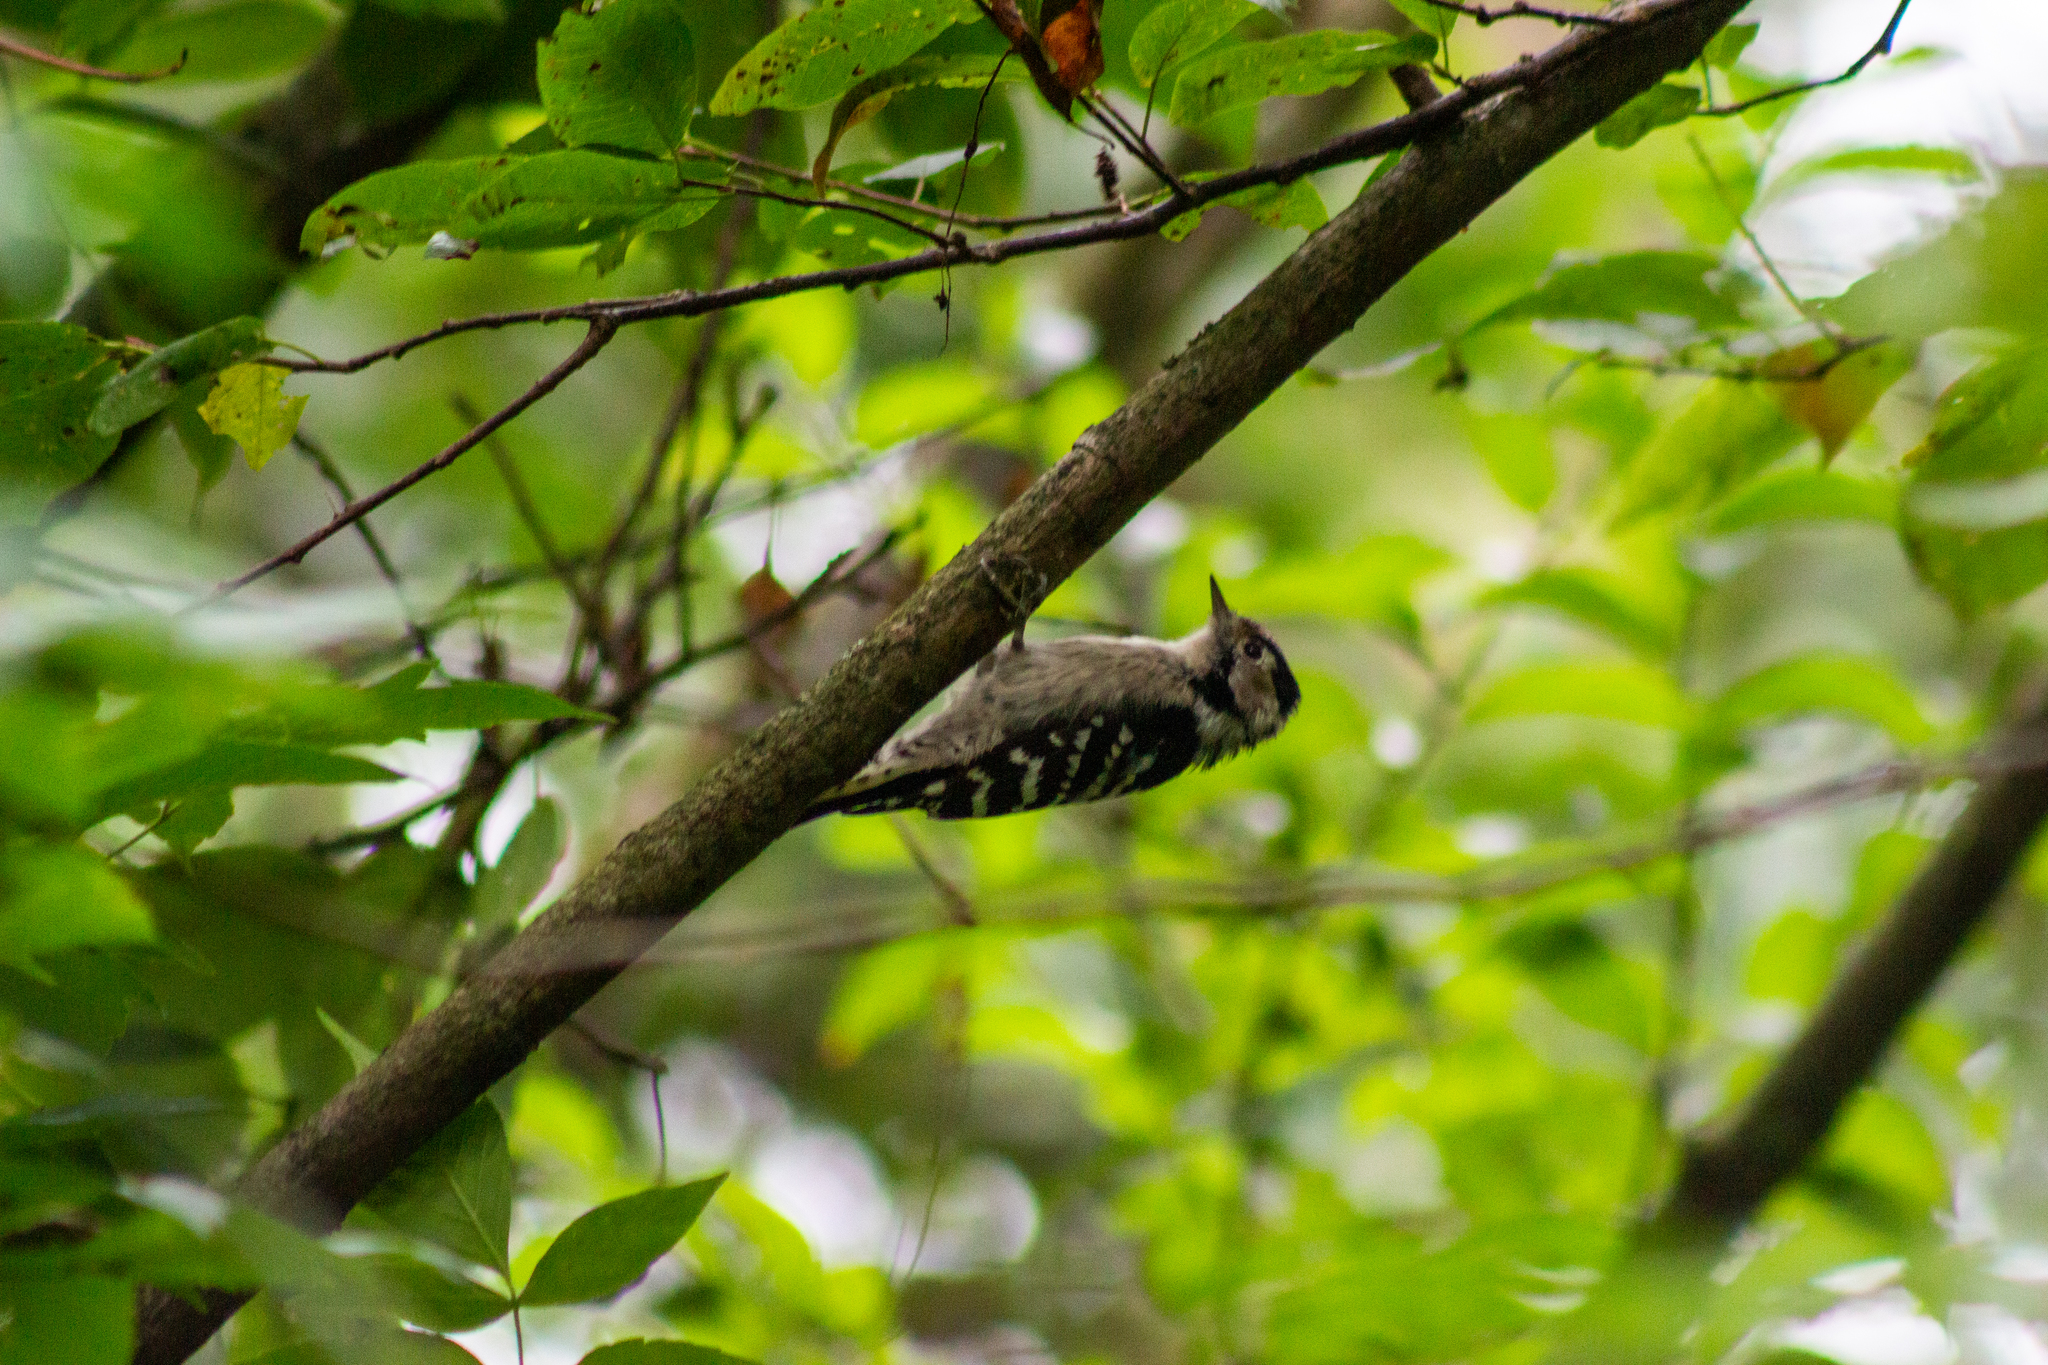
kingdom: Animalia
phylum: Chordata
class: Aves
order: Piciformes
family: Picidae
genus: Dryobates
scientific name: Dryobates minor
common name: Lesser spotted woodpecker
